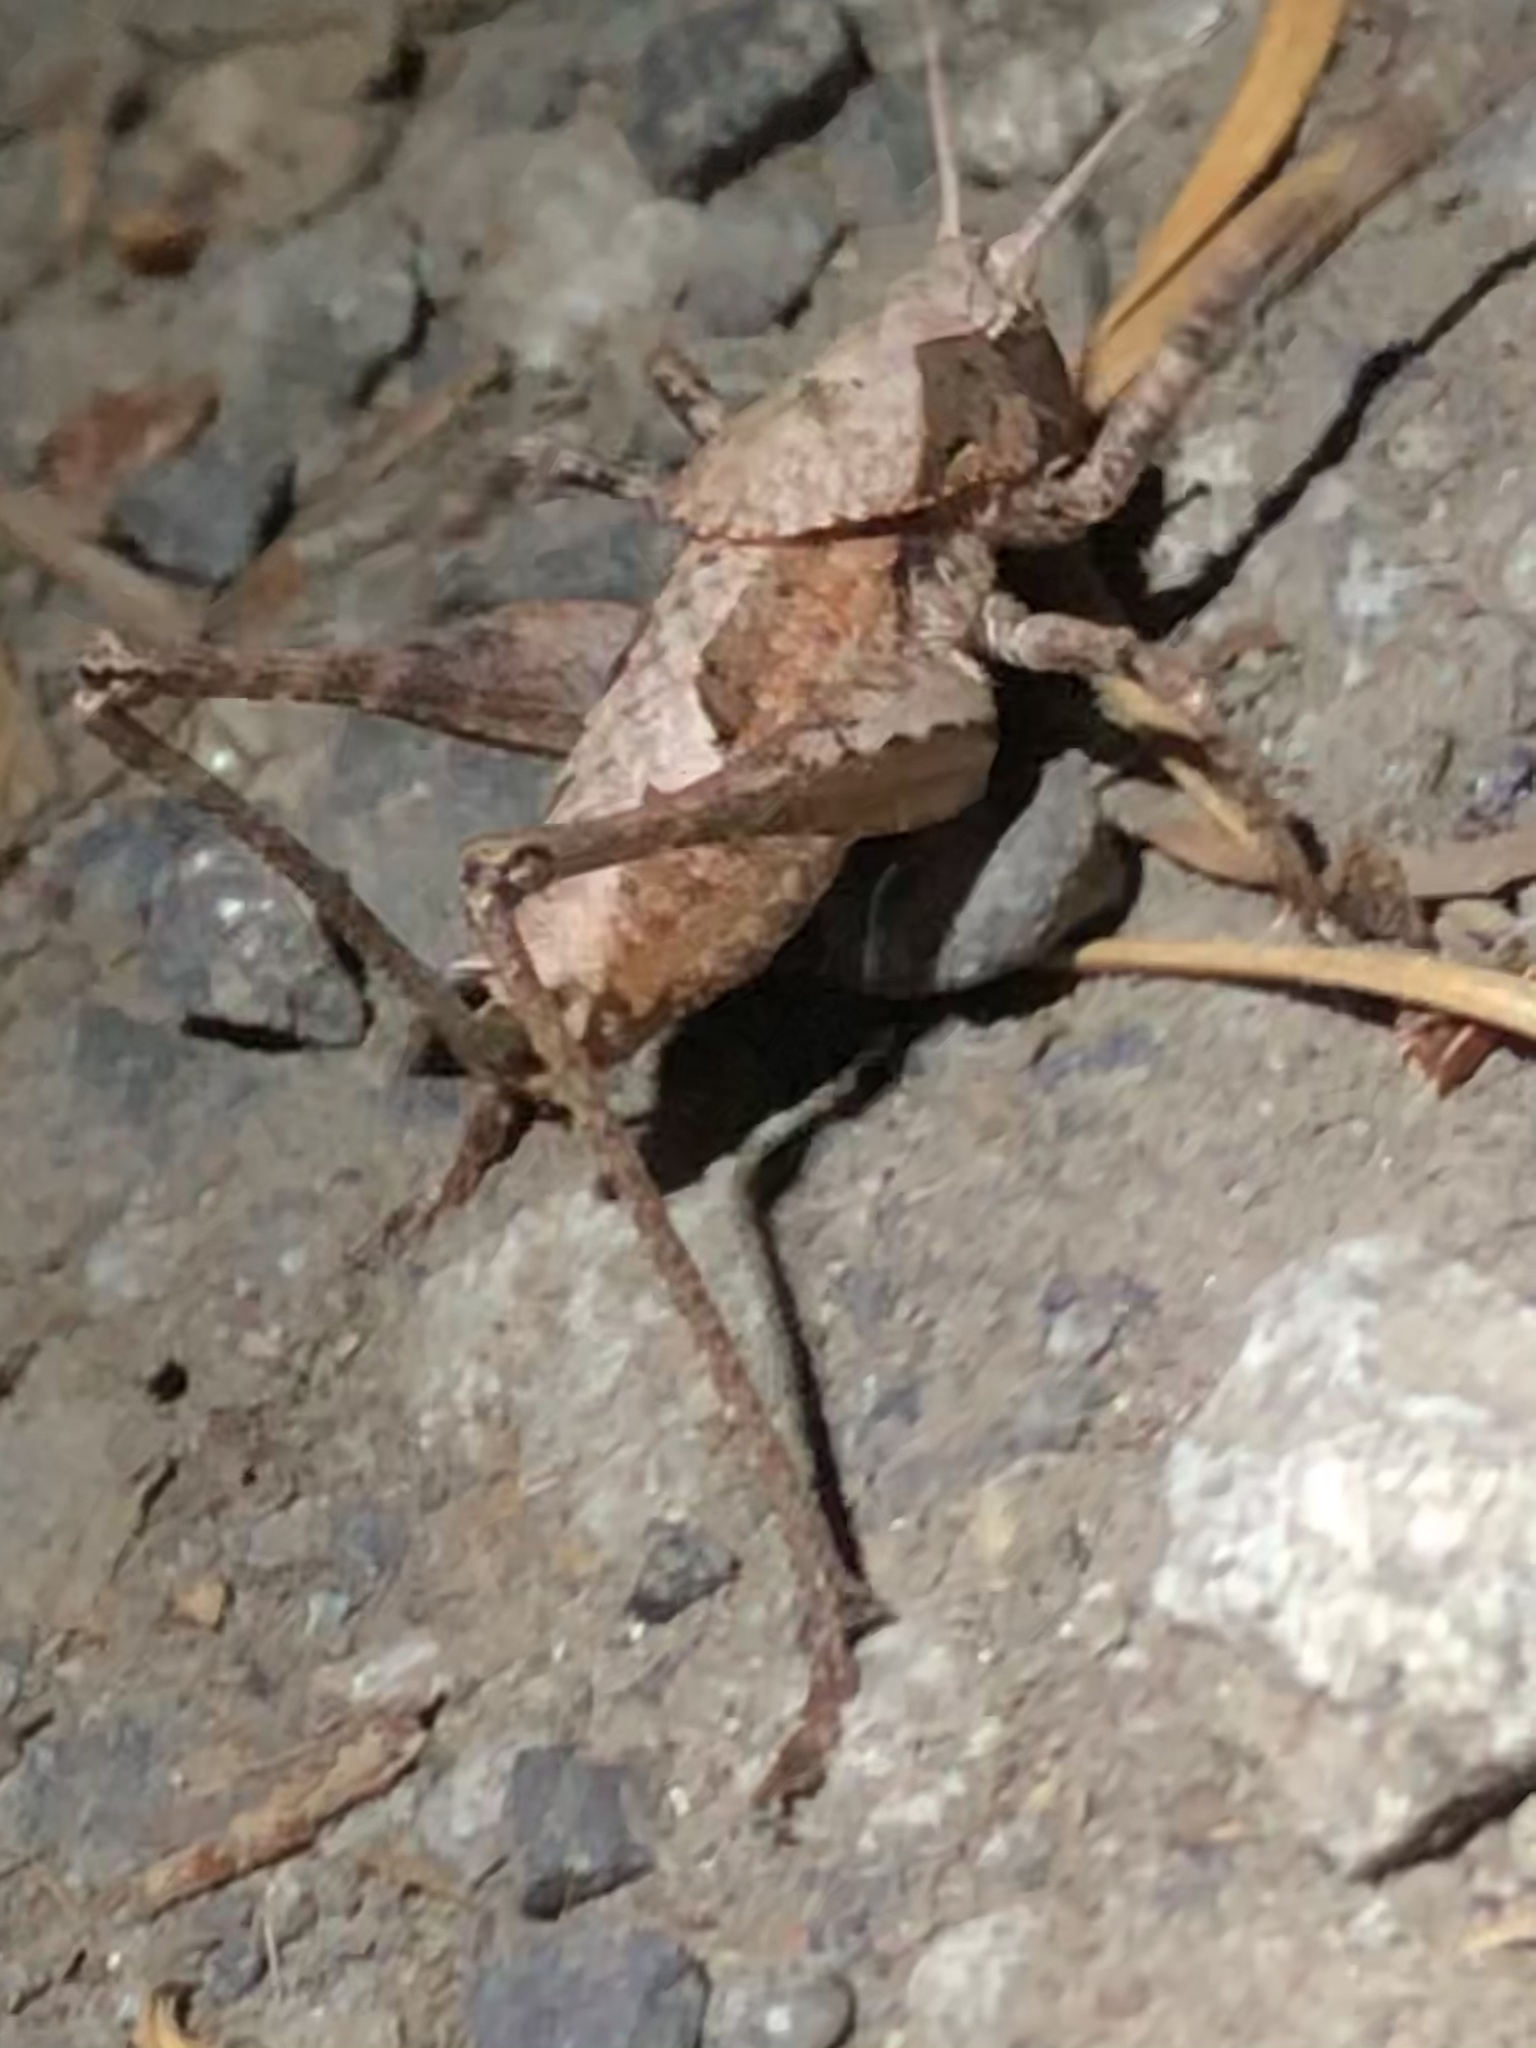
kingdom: Animalia
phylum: Arthropoda
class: Insecta
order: Orthoptera
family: Tettigoniidae
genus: Neduba
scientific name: Neduba steindachneri
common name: Steindachner's shieldback
